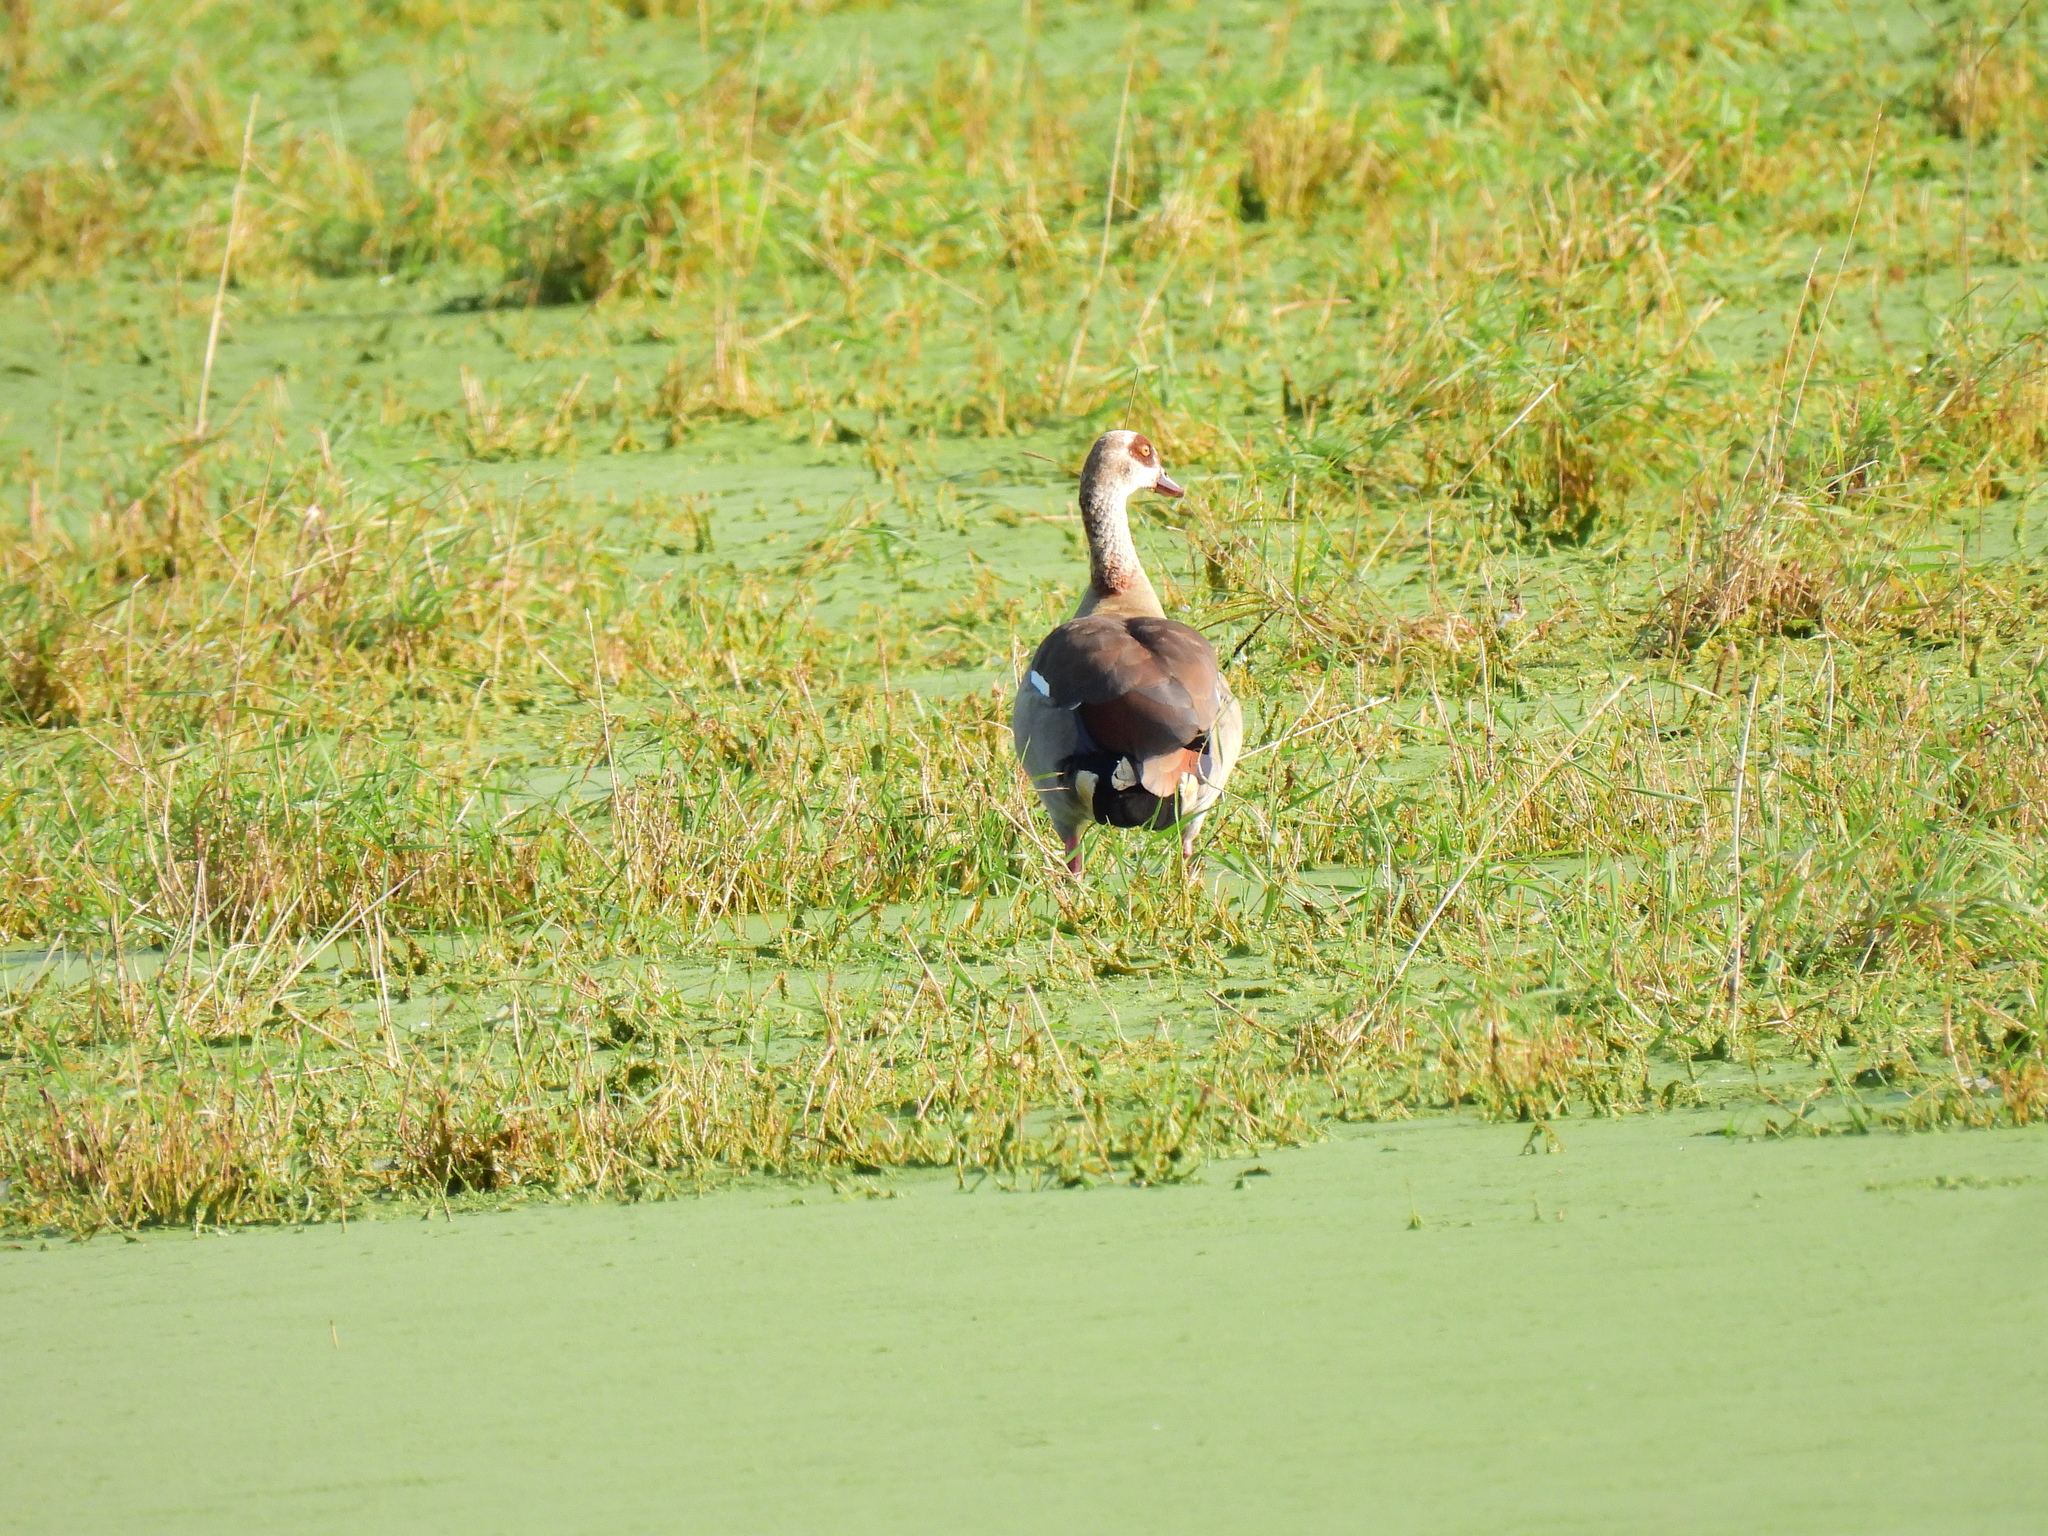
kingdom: Animalia
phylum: Chordata
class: Aves
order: Anseriformes
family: Anatidae
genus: Alopochen
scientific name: Alopochen aegyptiaca
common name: Egyptian goose
